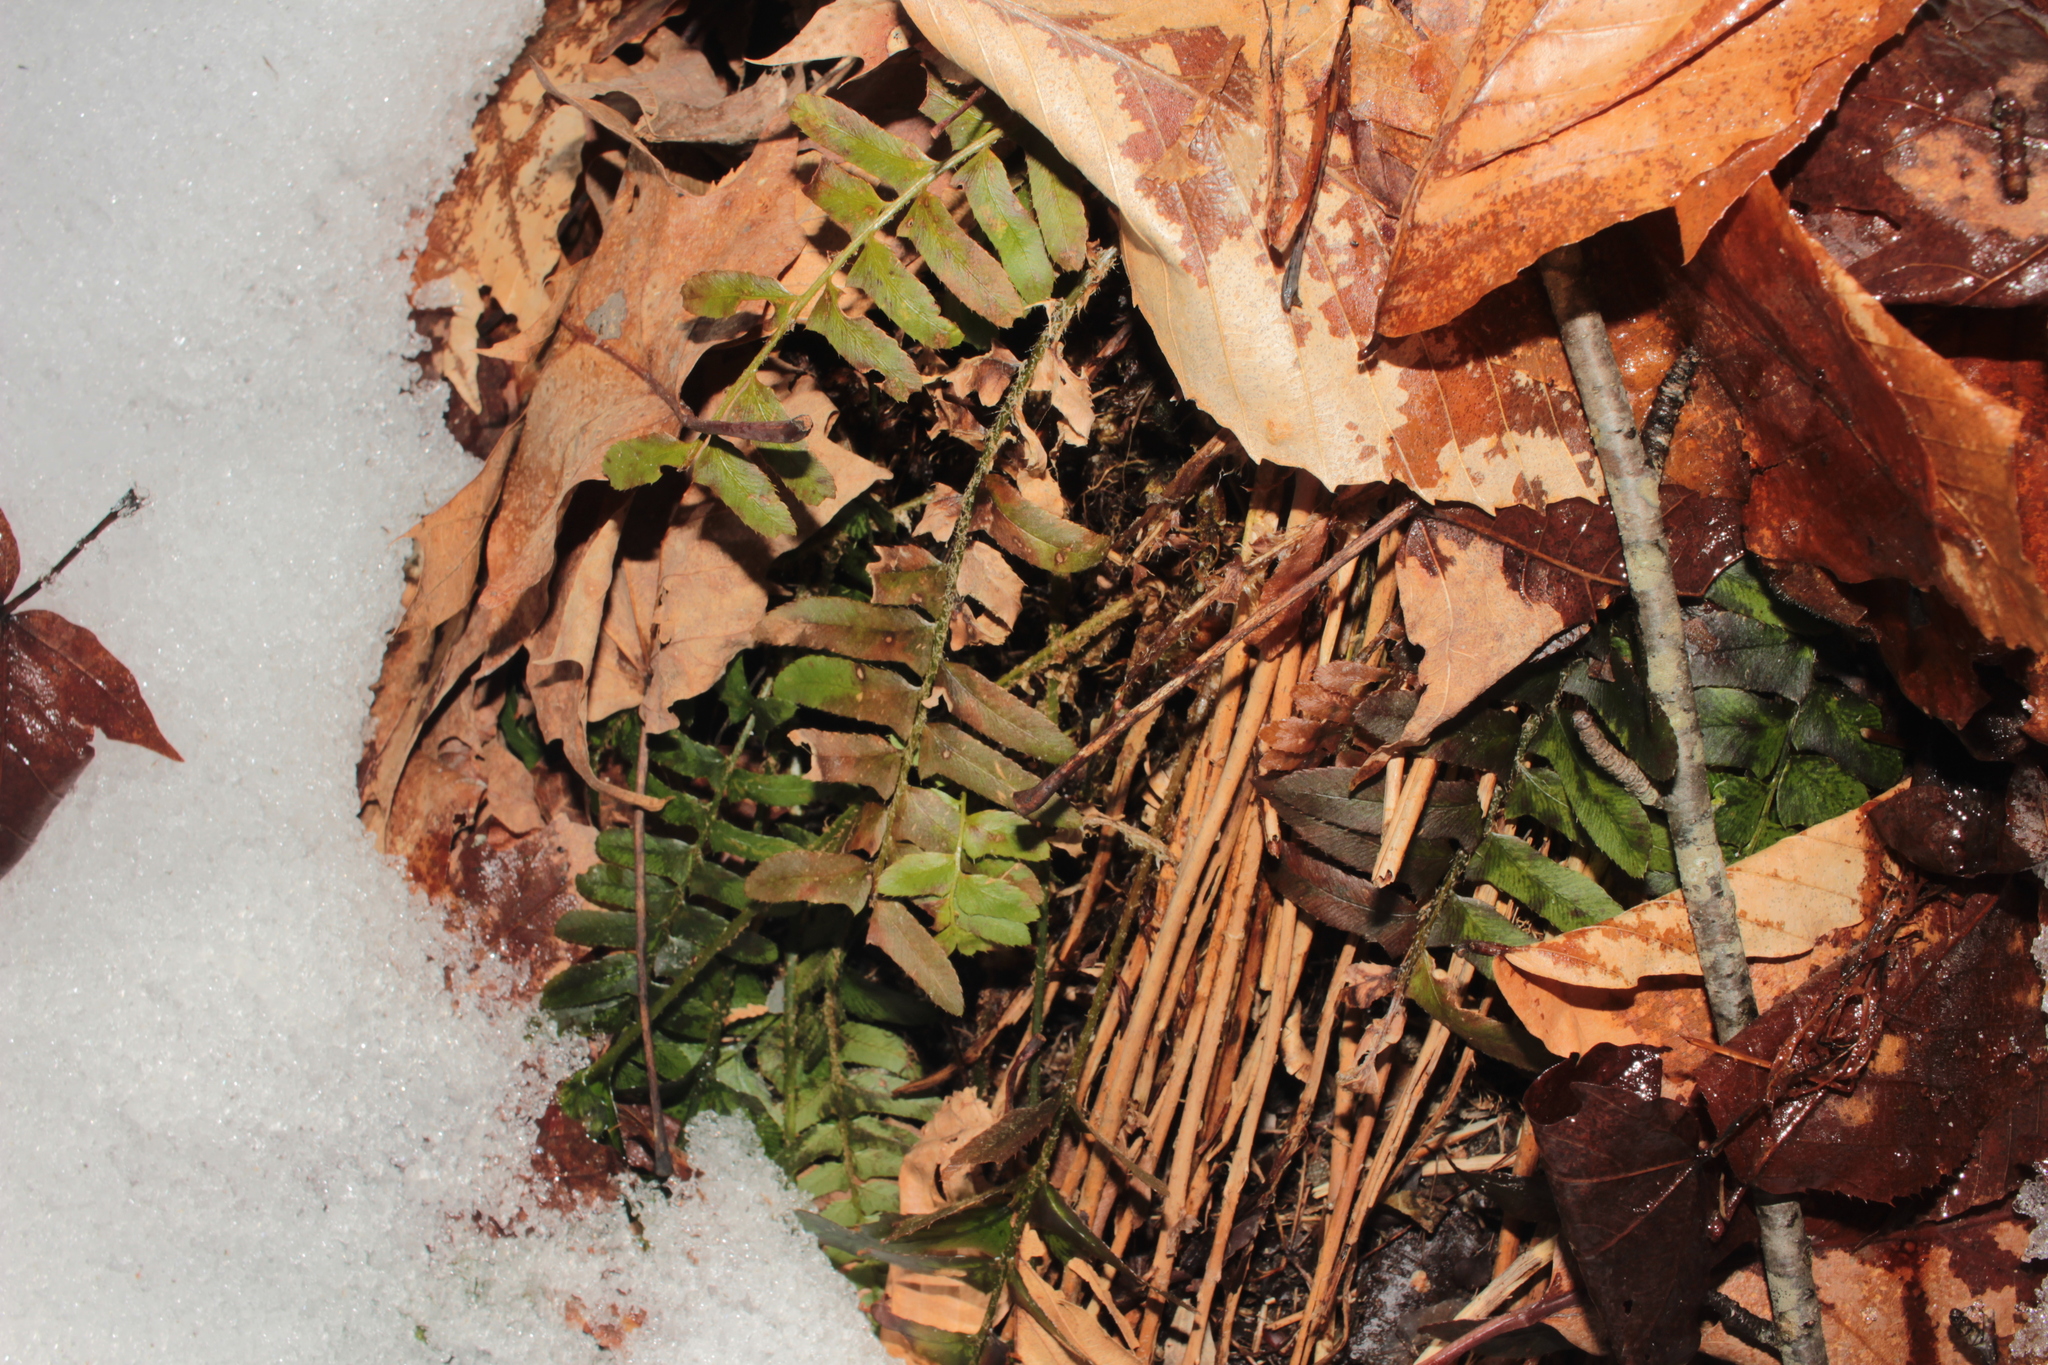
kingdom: Plantae
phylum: Tracheophyta
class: Polypodiopsida
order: Polypodiales
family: Dryopteridaceae
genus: Polystichum
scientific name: Polystichum acrostichoides
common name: Christmas fern
